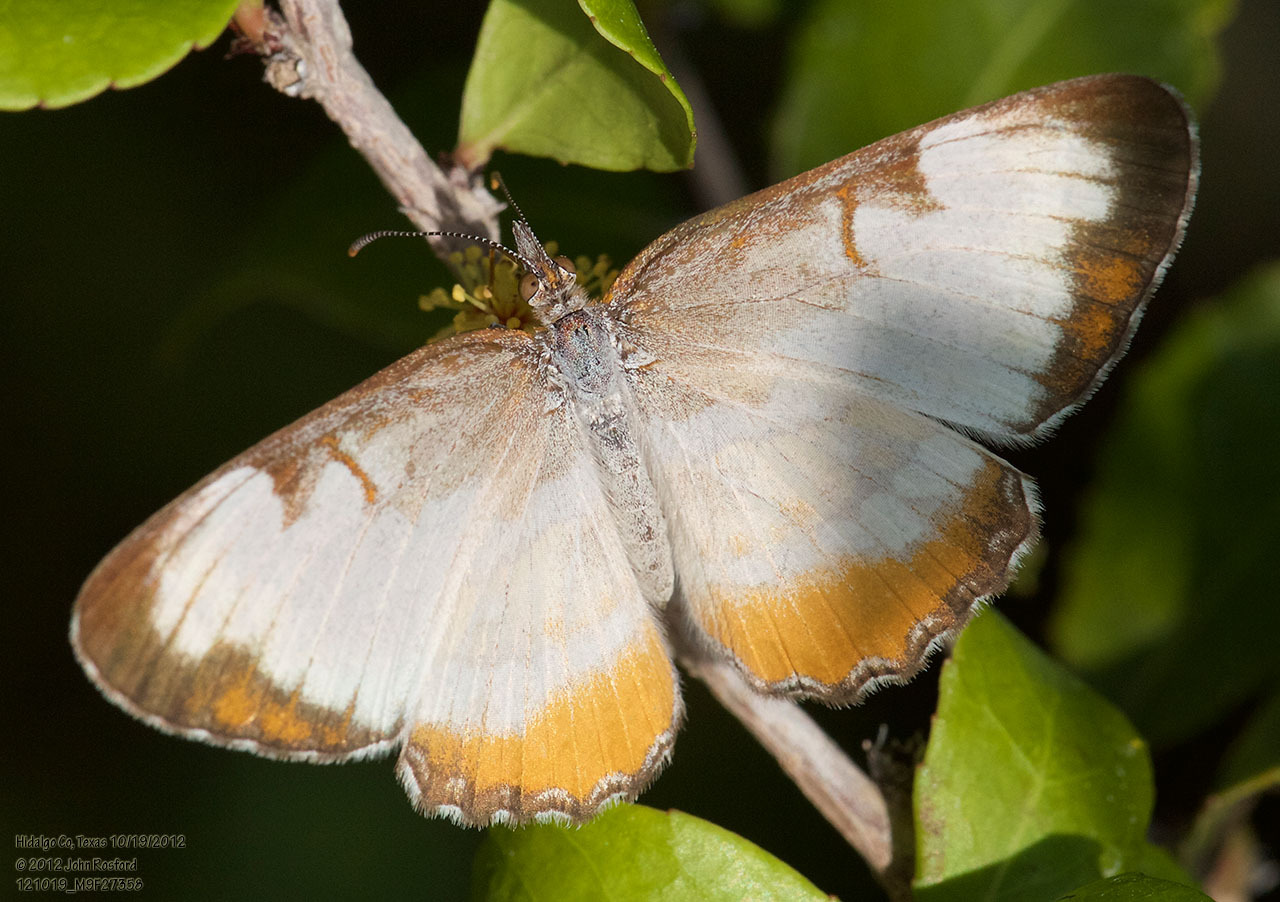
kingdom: Animalia
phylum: Arthropoda
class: Insecta
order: Lepidoptera
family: Nymphalidae
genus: Mestra
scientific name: Mestra amymone
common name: Common mestra
